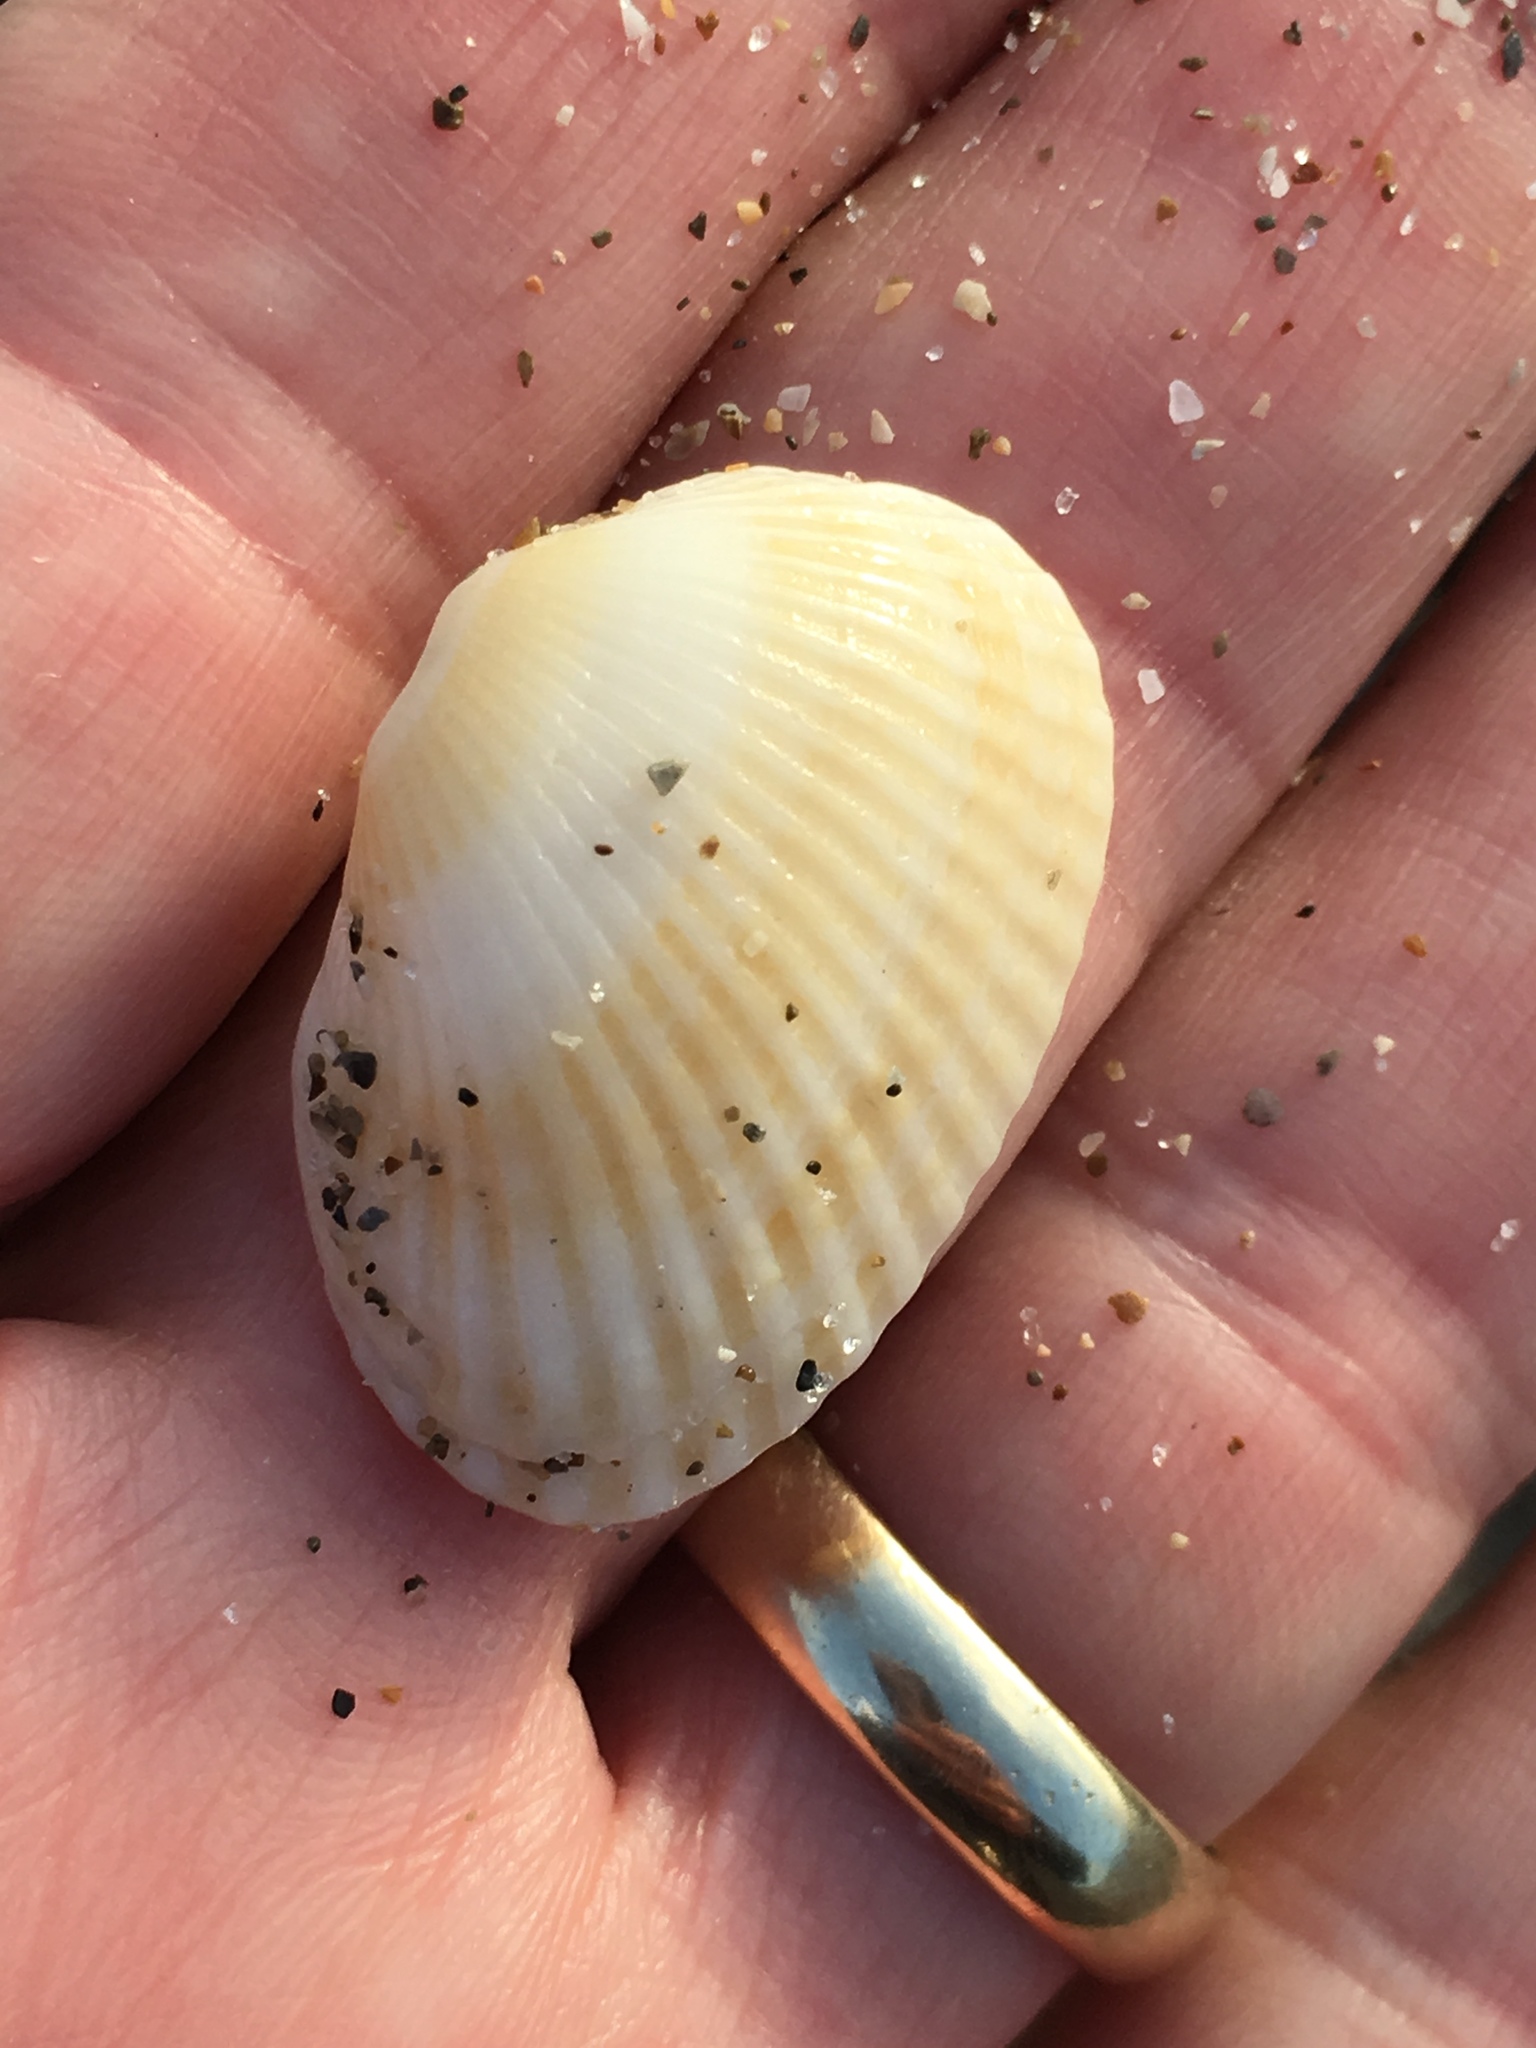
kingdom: Animalia
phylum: Mollusca
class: Bivalvia
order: Arcida
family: Arcidae
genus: Anadara
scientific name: Anadara transversa
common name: Transverse ark
